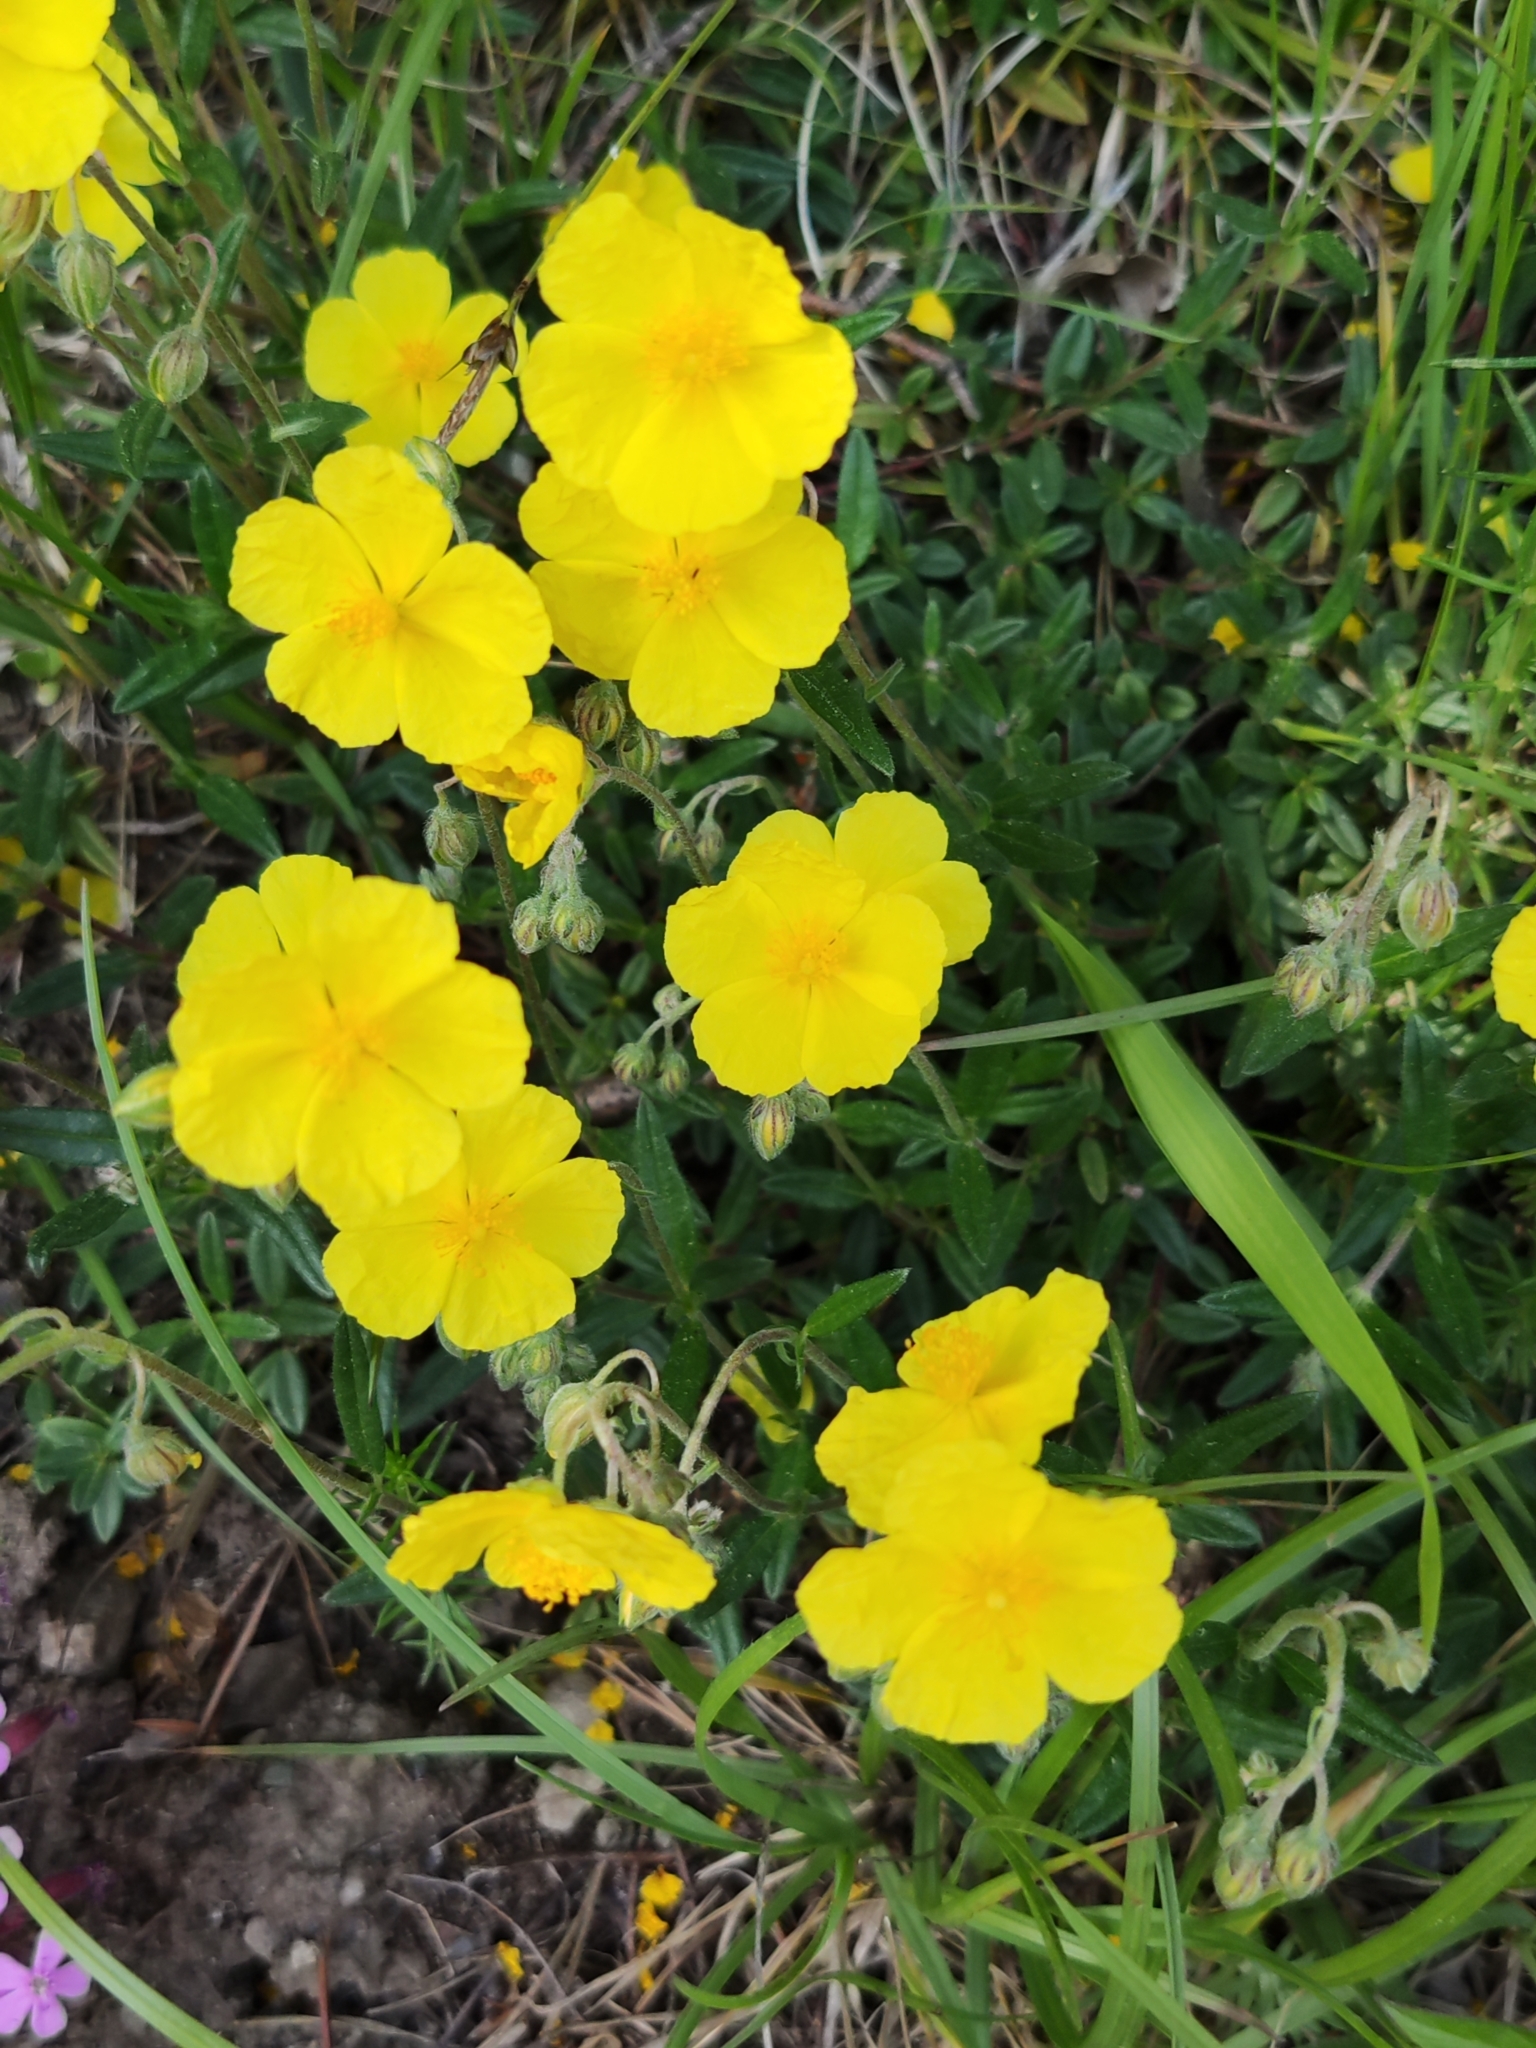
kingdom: Plantae
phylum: Tracheophyta
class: Magnoliopsida
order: Malvales
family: Cistaceae
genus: Helianthemum
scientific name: Helianthemum nummularium
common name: Common rock-rose
